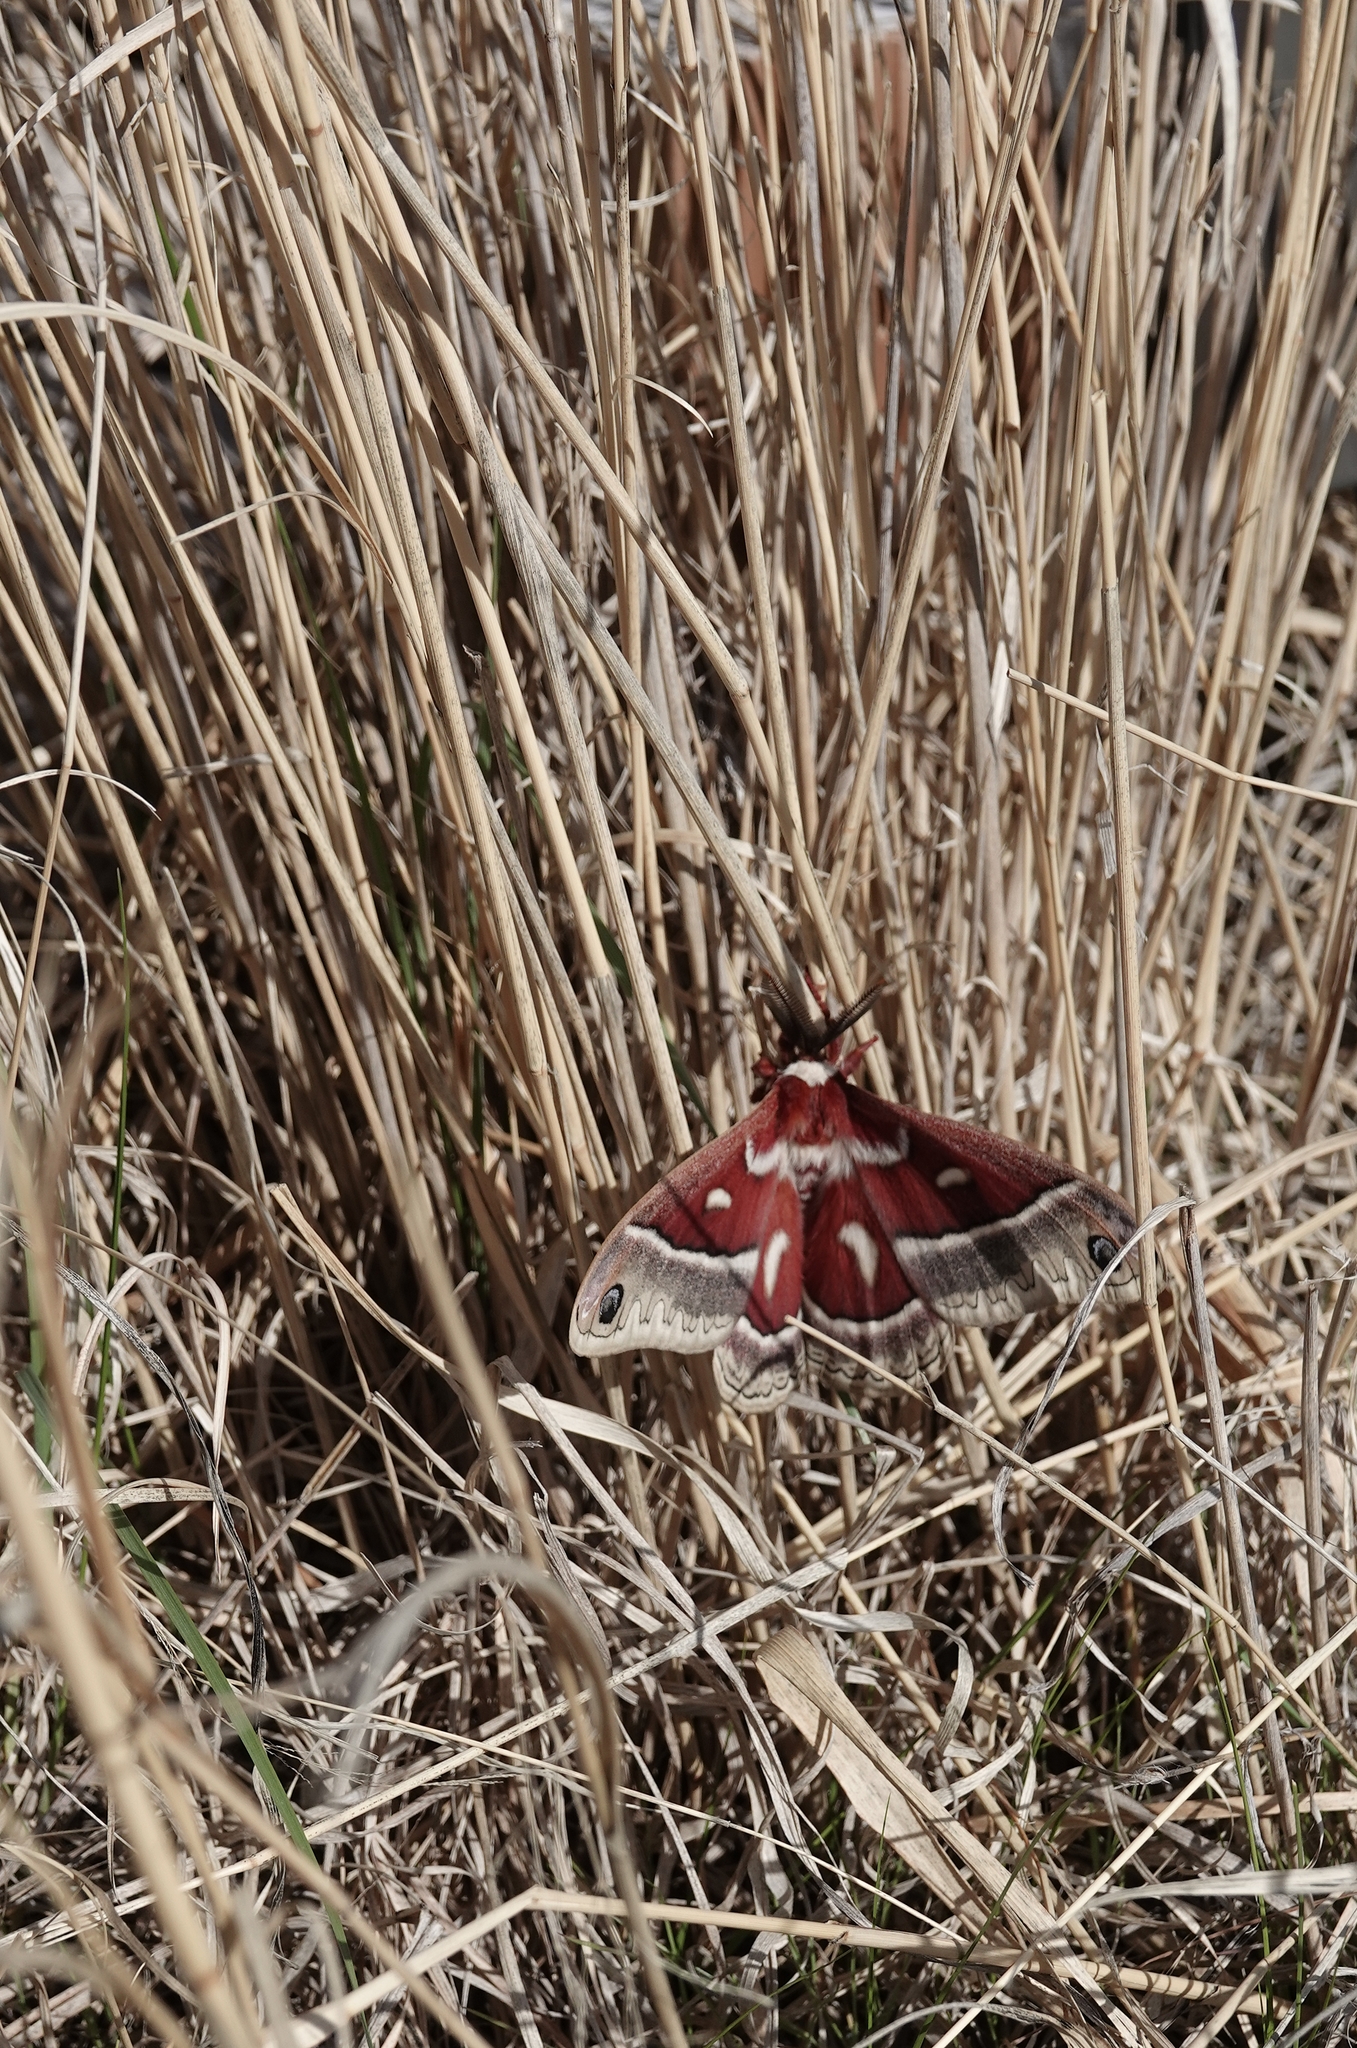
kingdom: Animalia
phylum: Arthropoda
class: Insecta
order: Lepidoptera
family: Saturniidae
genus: Hyalophora
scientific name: Hyalophora gloveri
